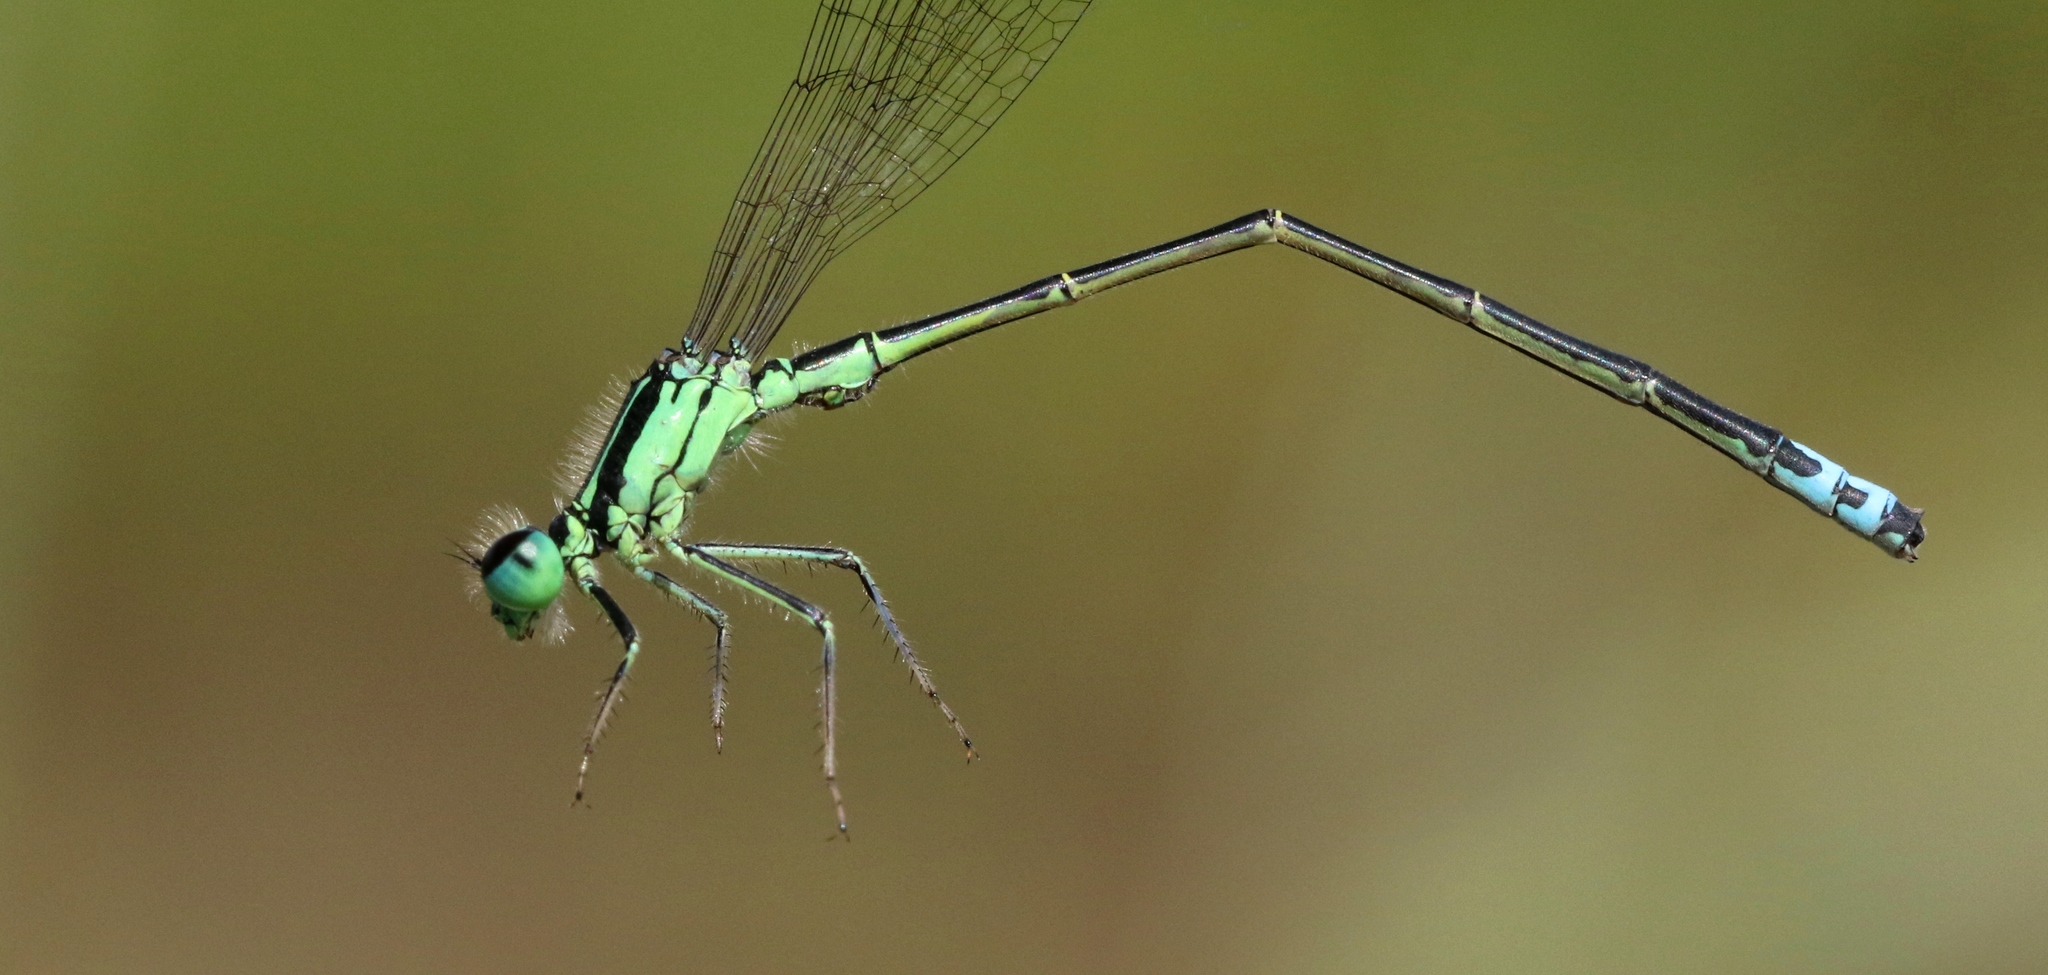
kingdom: Animalia
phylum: Arthropoda
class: Insecta
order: Odonata
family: Coenagrionidae
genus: Ischnura
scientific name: Ischnura verticalis
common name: Eastern forktail
